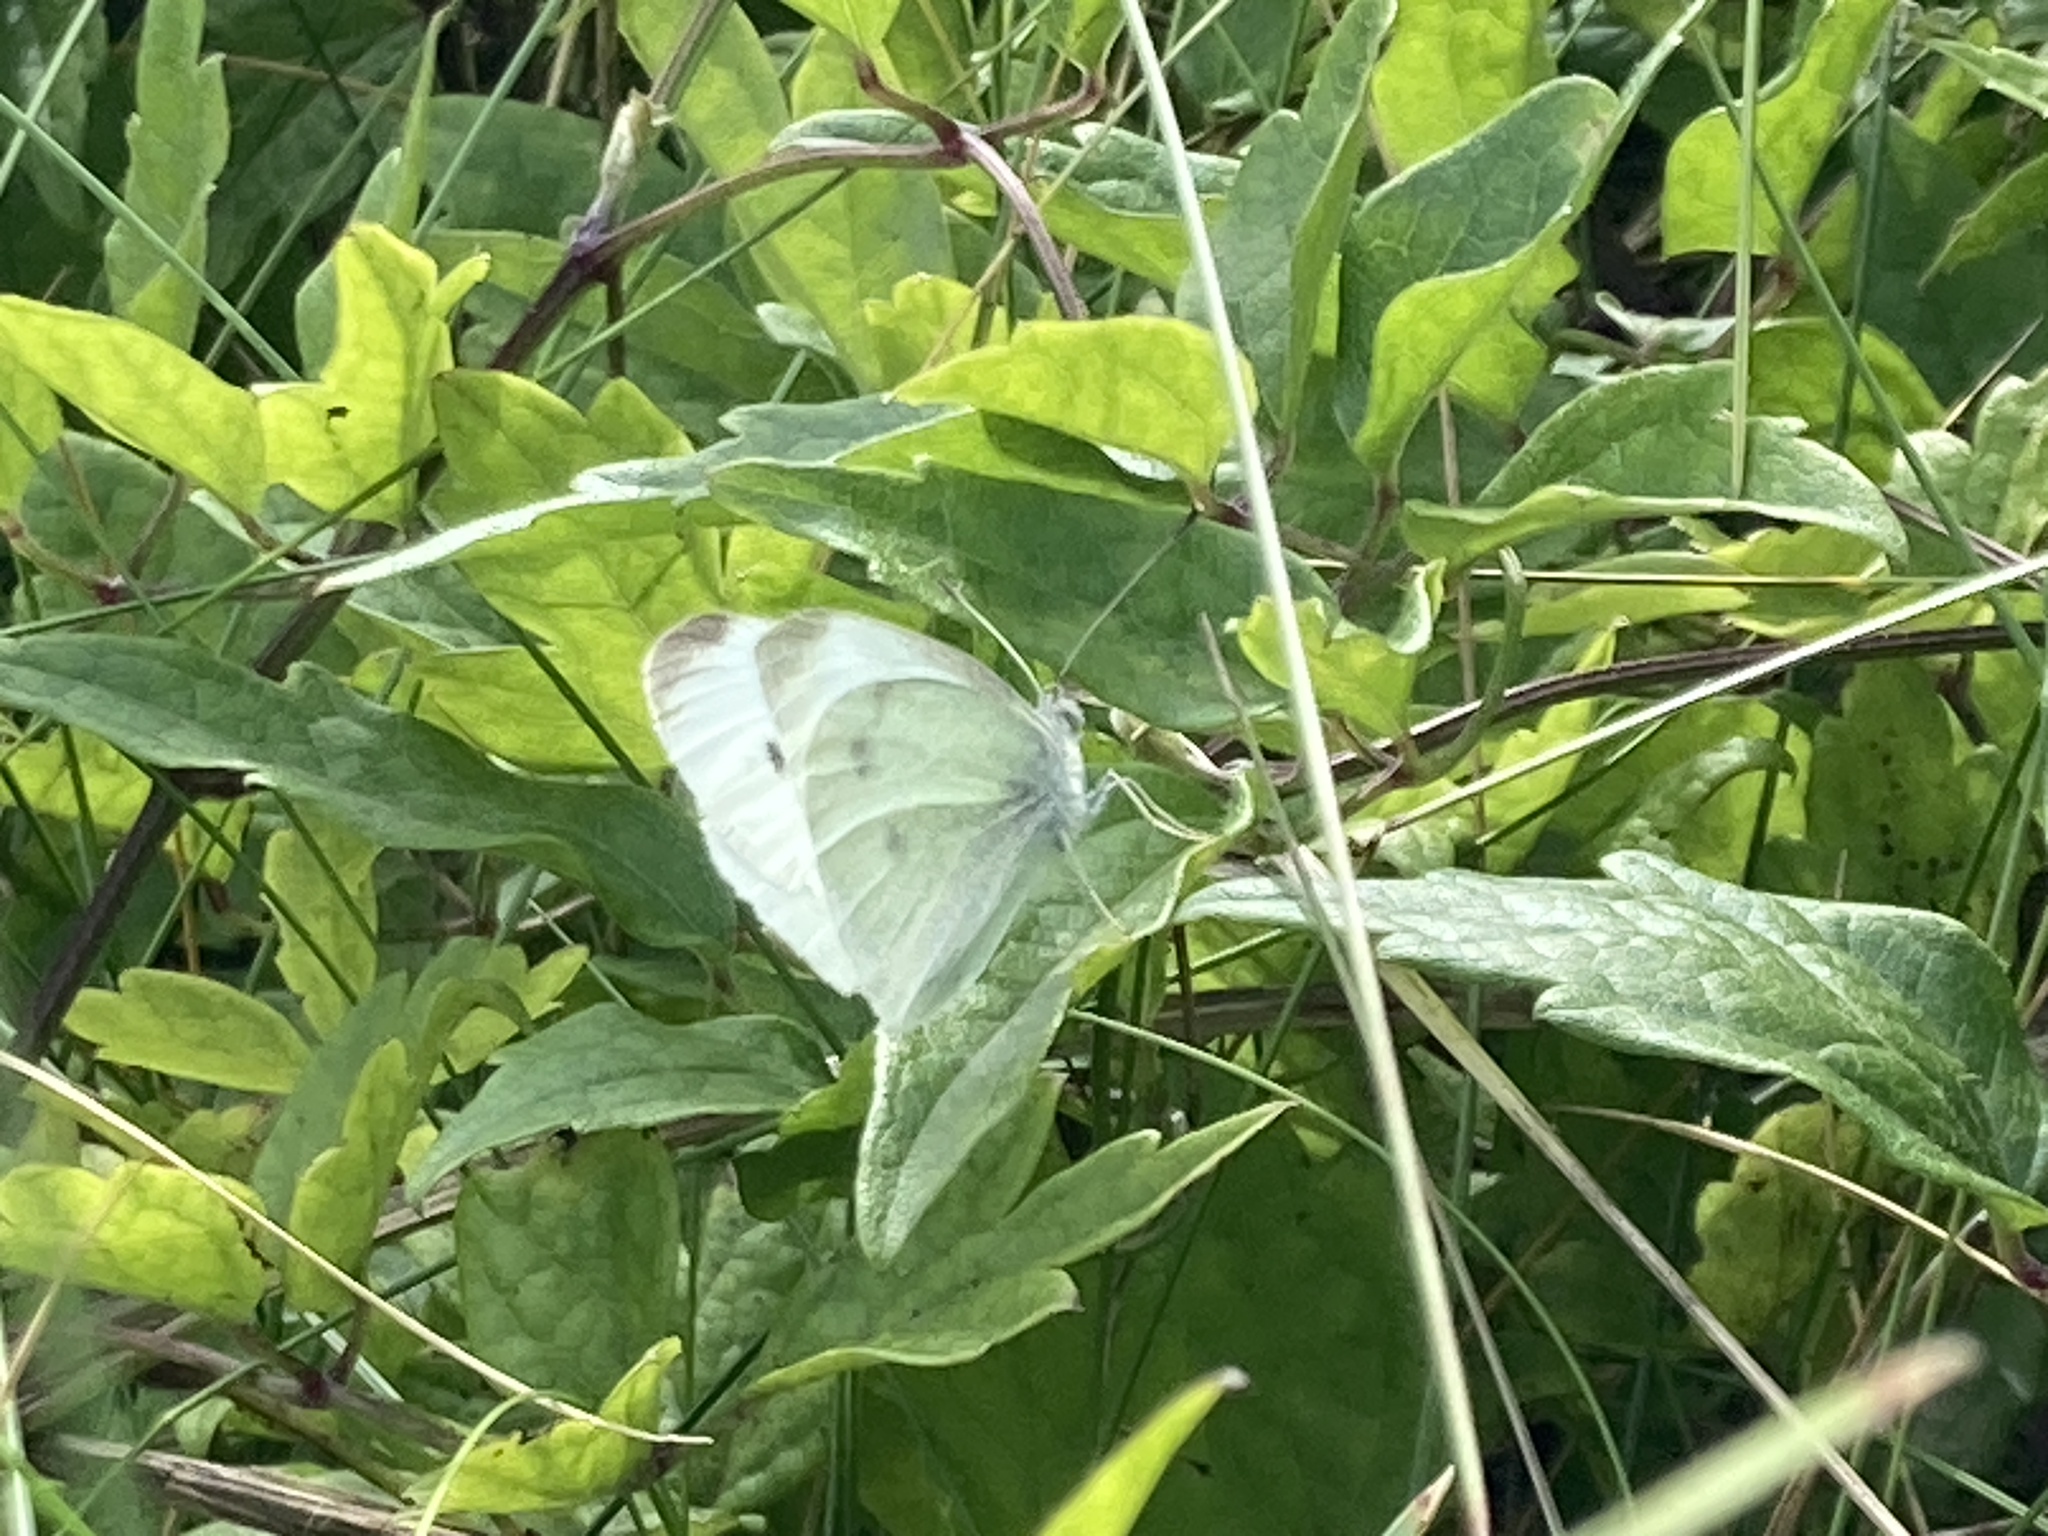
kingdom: Animalia
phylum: Arthropoda
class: Insecta
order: Lepidoptera
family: Pieridae
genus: Pieris
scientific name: Pieris rapae
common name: Small white
